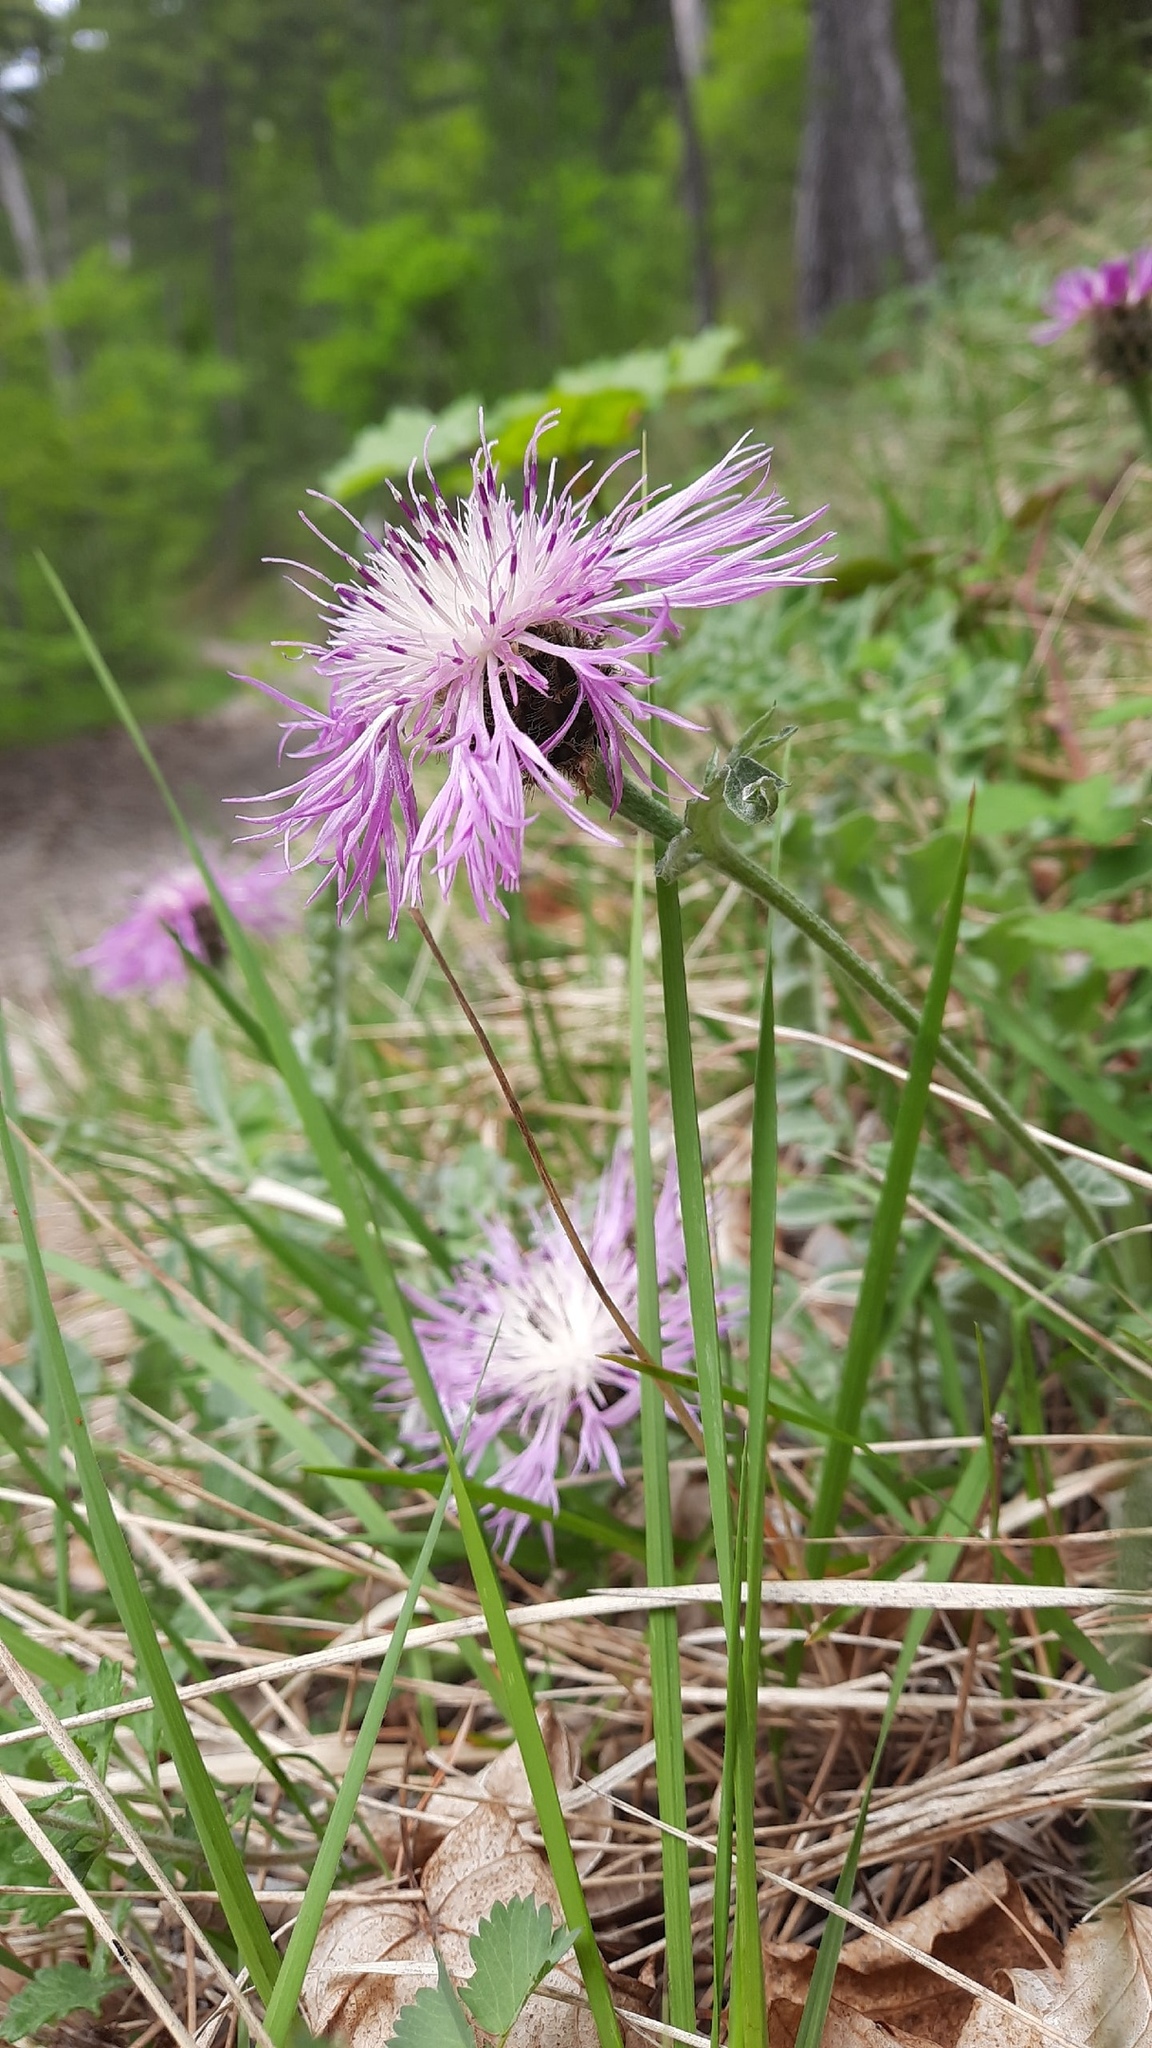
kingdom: Plantae
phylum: Tracheophyta
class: Magnoliopsida
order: Asterales
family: Asteraceae
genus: Psephellus
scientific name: Psephellus declinatus
